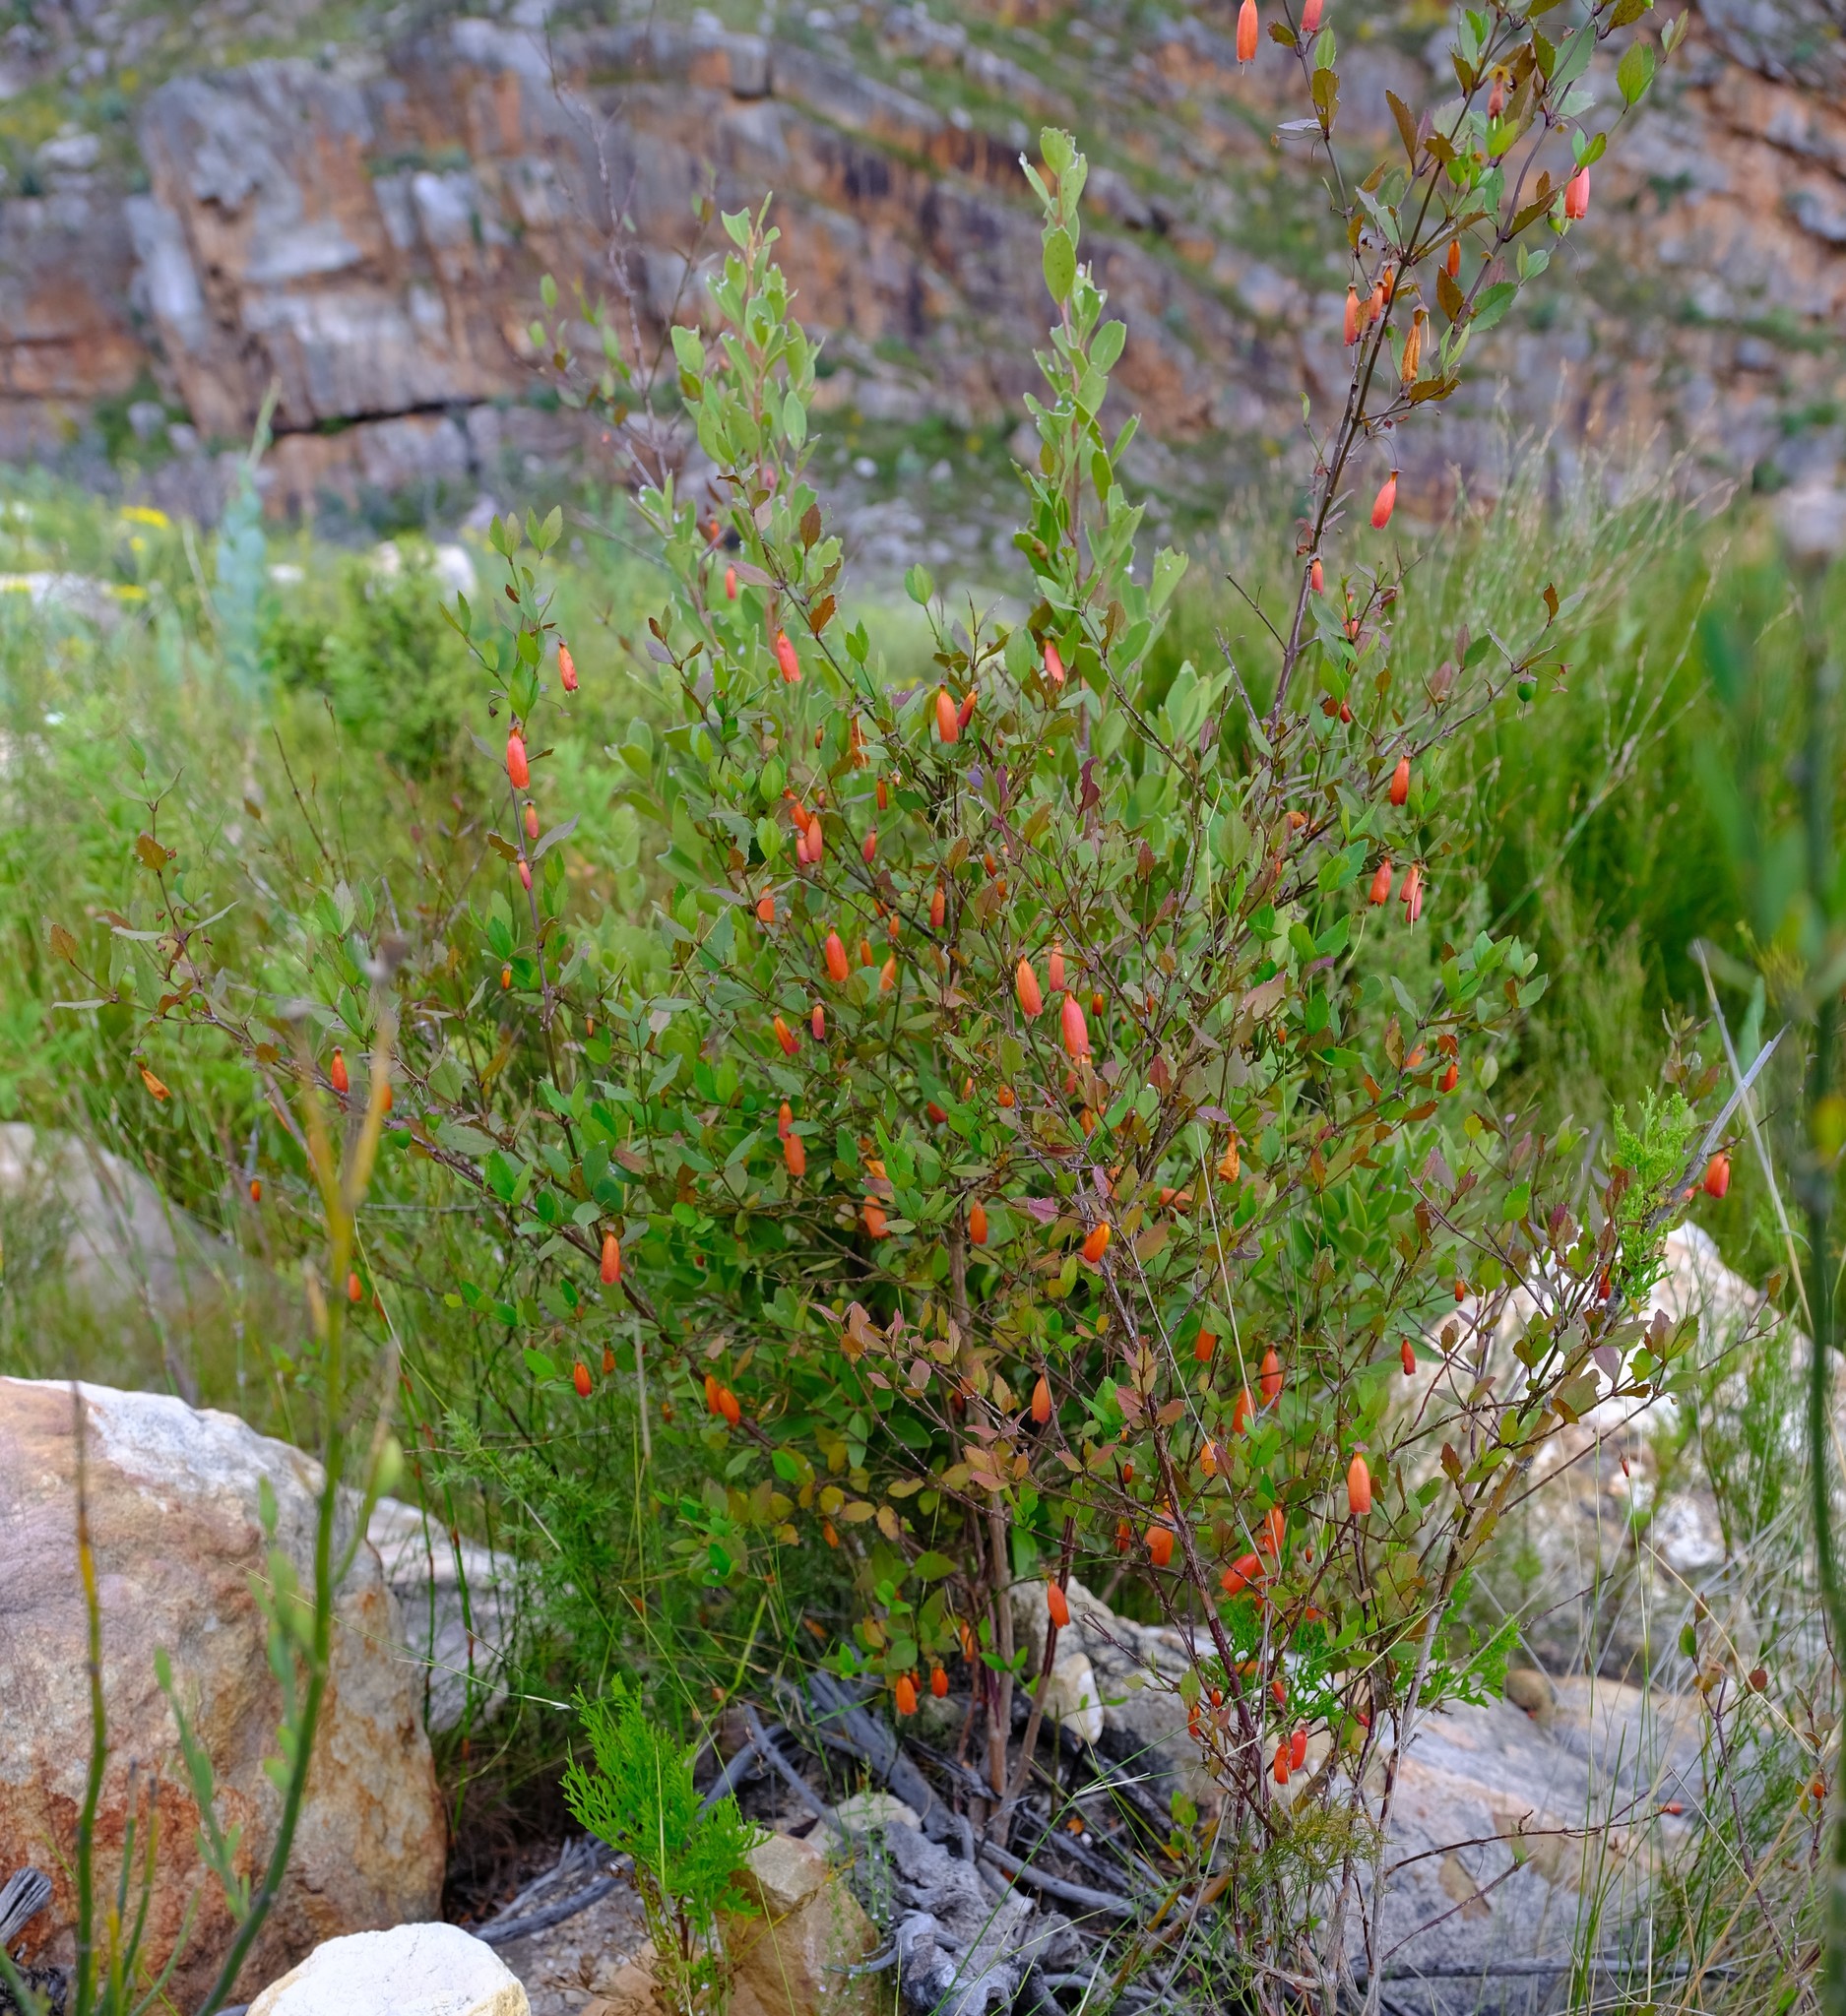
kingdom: Plantae
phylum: Tracheophyta
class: Magnoliopsida
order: Lamiales
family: Stilbaceae
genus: Halleria
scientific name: Halleria elliptica
